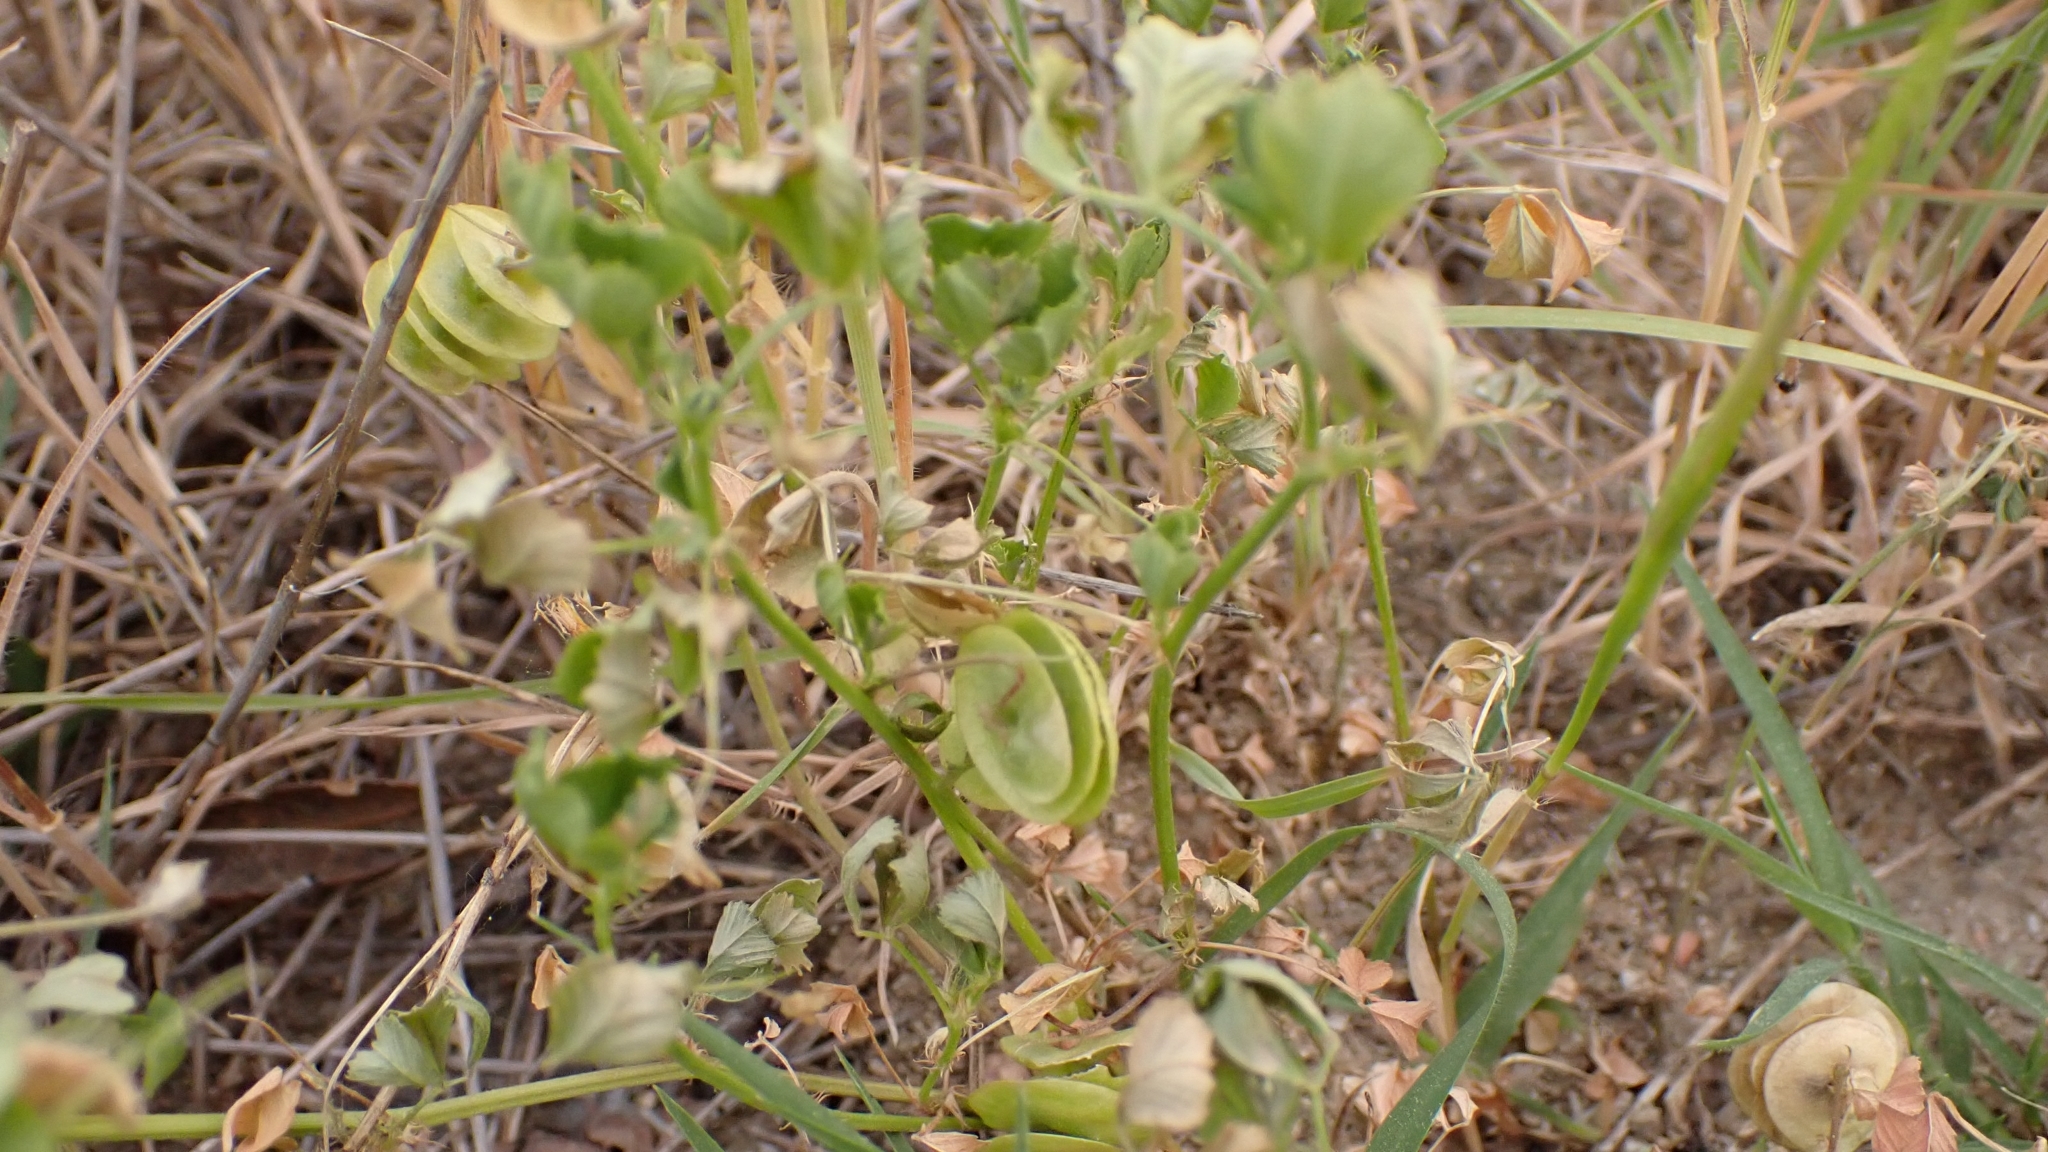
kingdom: Plantae
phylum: Tracheophyta
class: Magnoliopsida
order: Fabales
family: Fabaceae
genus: Medicago
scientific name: Medicago orbicularis
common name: Button medick
